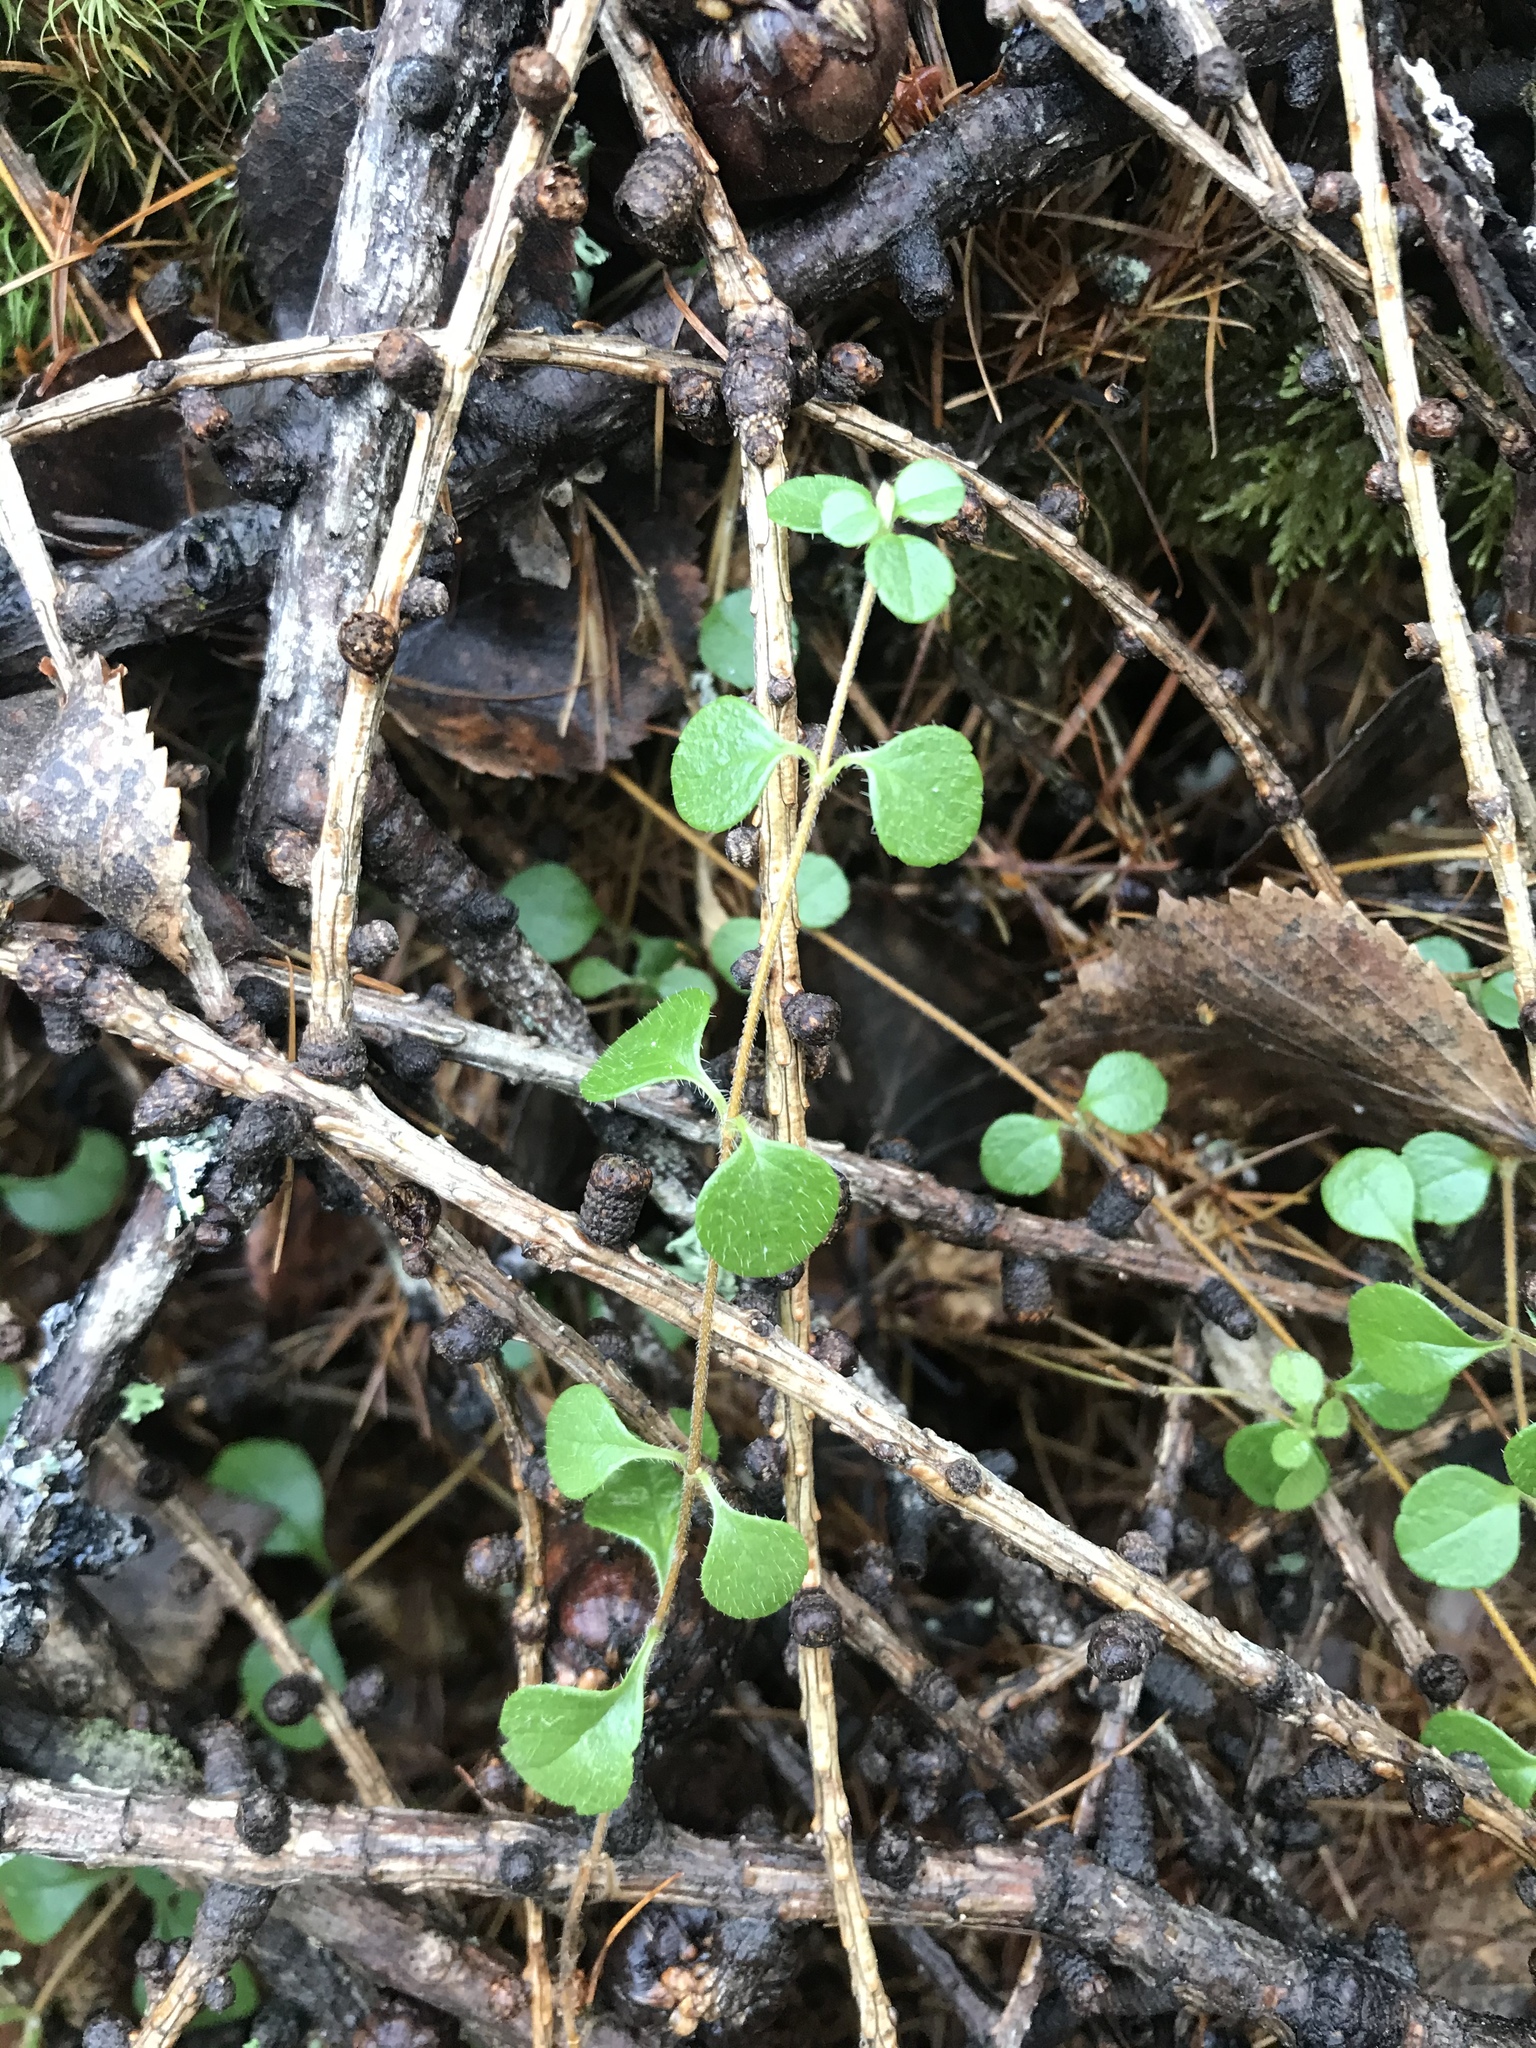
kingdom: Plantae
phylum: Tracheophyta
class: Magnoliopsida
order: Dipsacales
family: Caprifoliaceae
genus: Linnaea
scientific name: Linnaea borealis
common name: Twinflower
